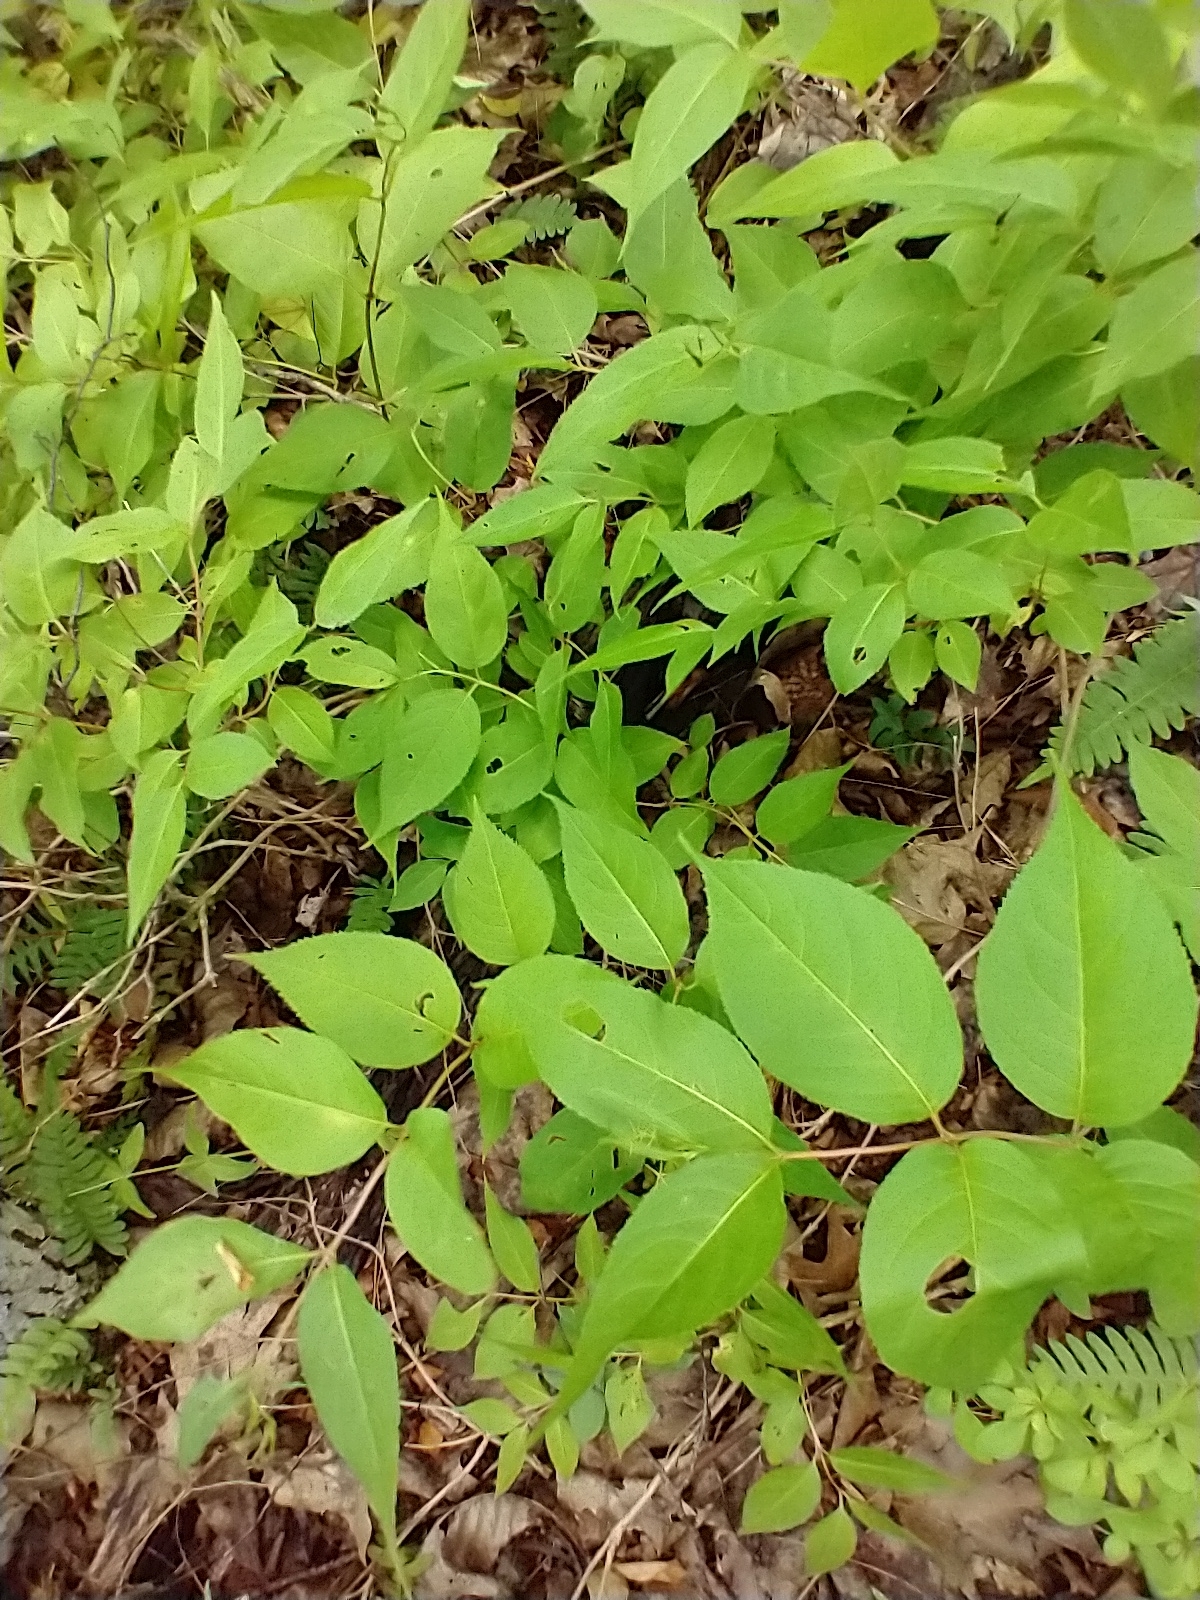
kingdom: Plantae
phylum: Tracheophyta
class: Magnoliopsida
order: Dipsacales
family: Caprifoliaceae
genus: Diervilla
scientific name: Diervilla lonicera
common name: Bush-honeysuckle
